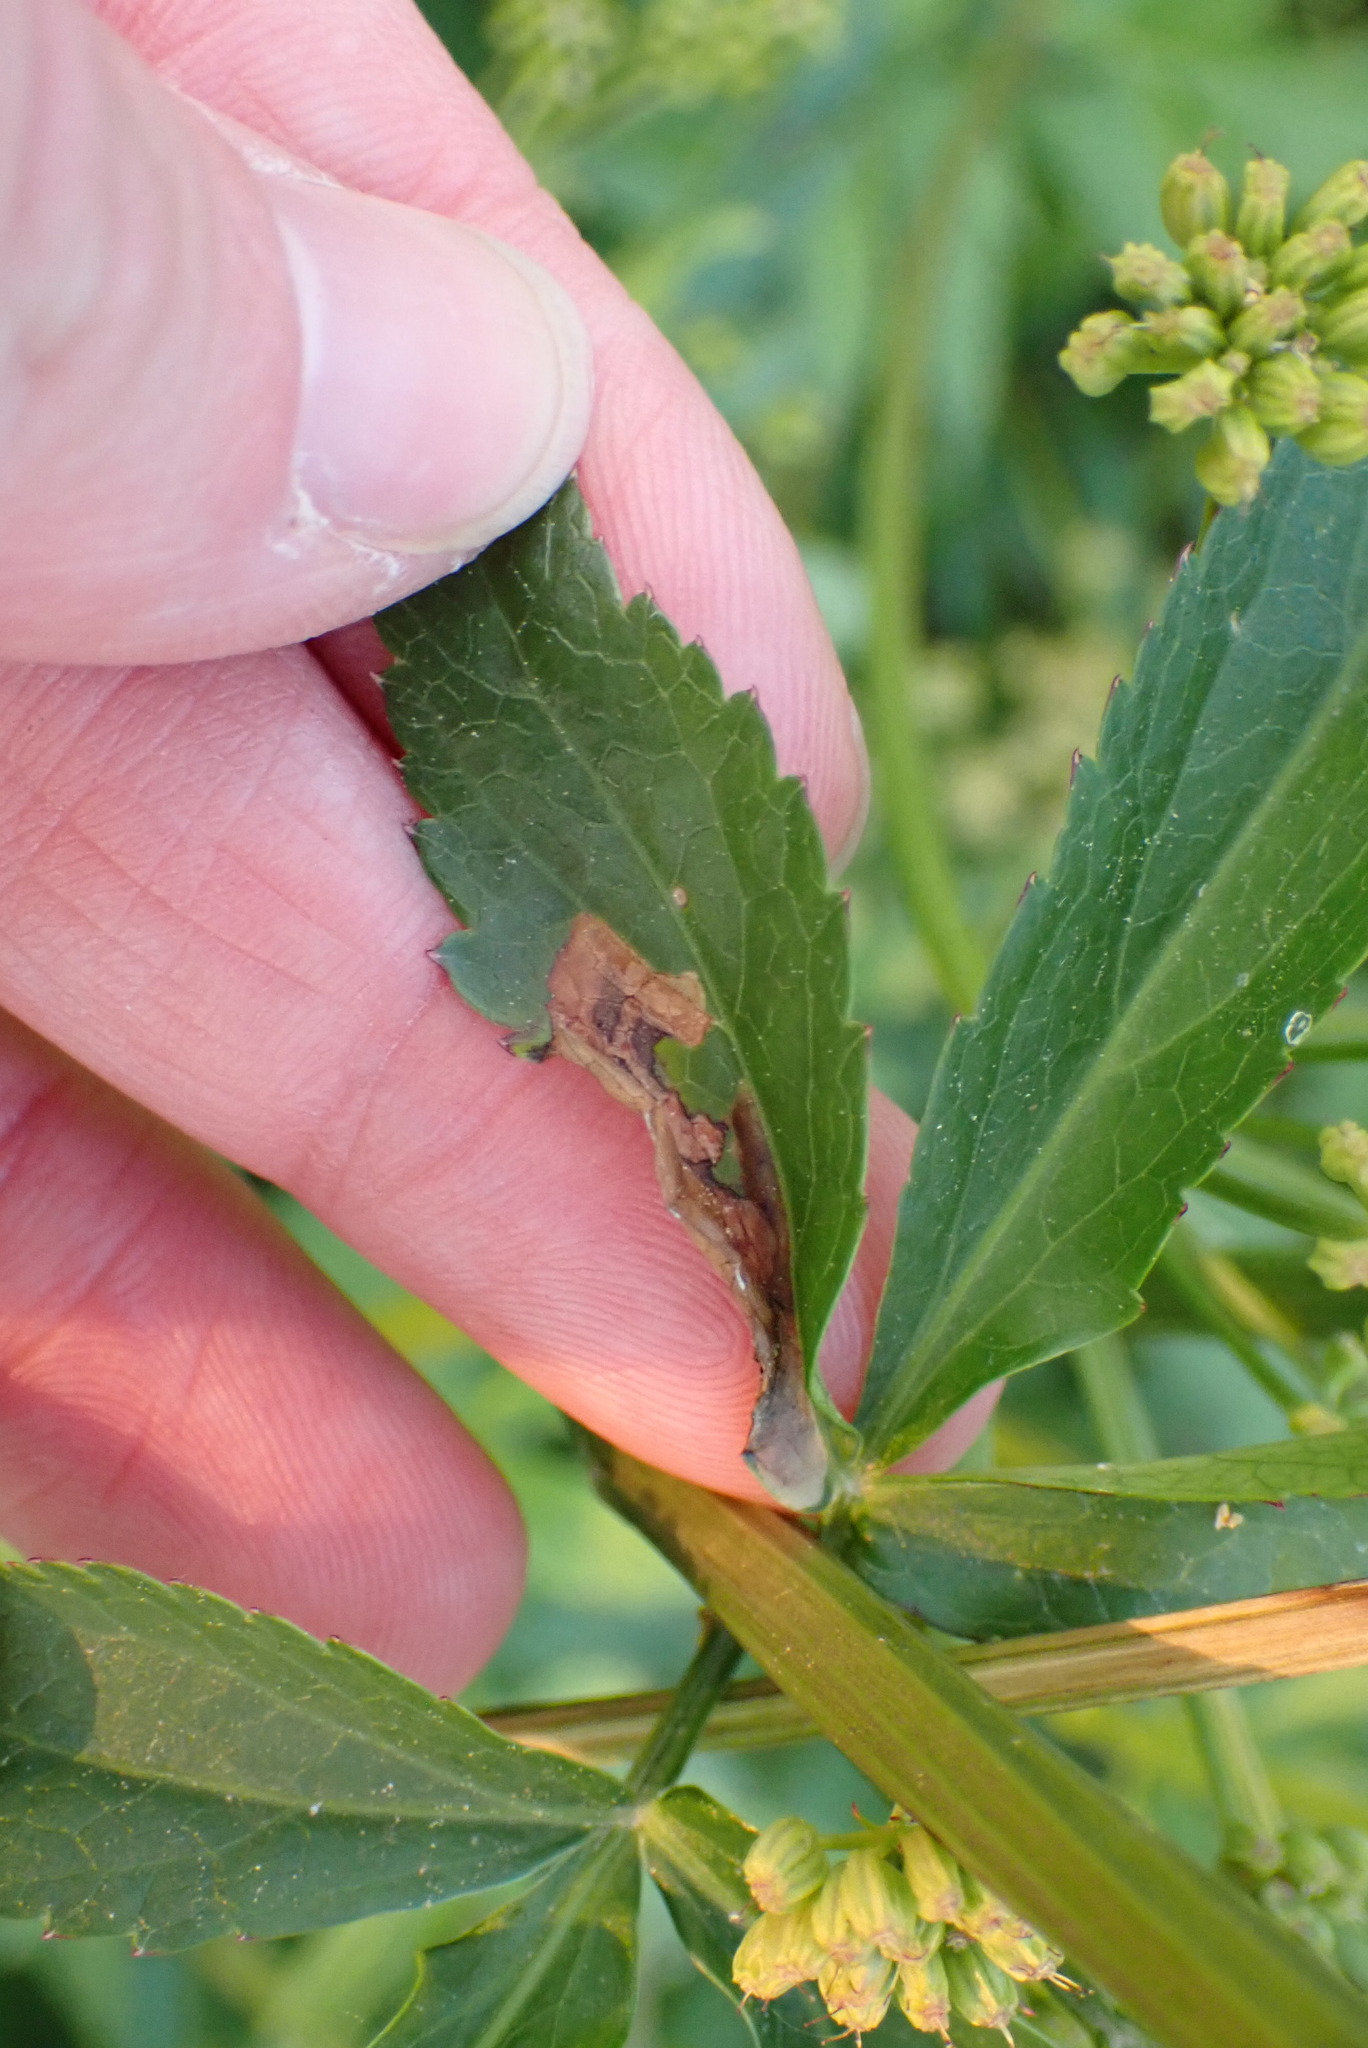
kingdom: Animalia
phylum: Arthropoda
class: Insecta
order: Diptera
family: Tephritidae
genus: Euleia
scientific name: Euleia fratria
